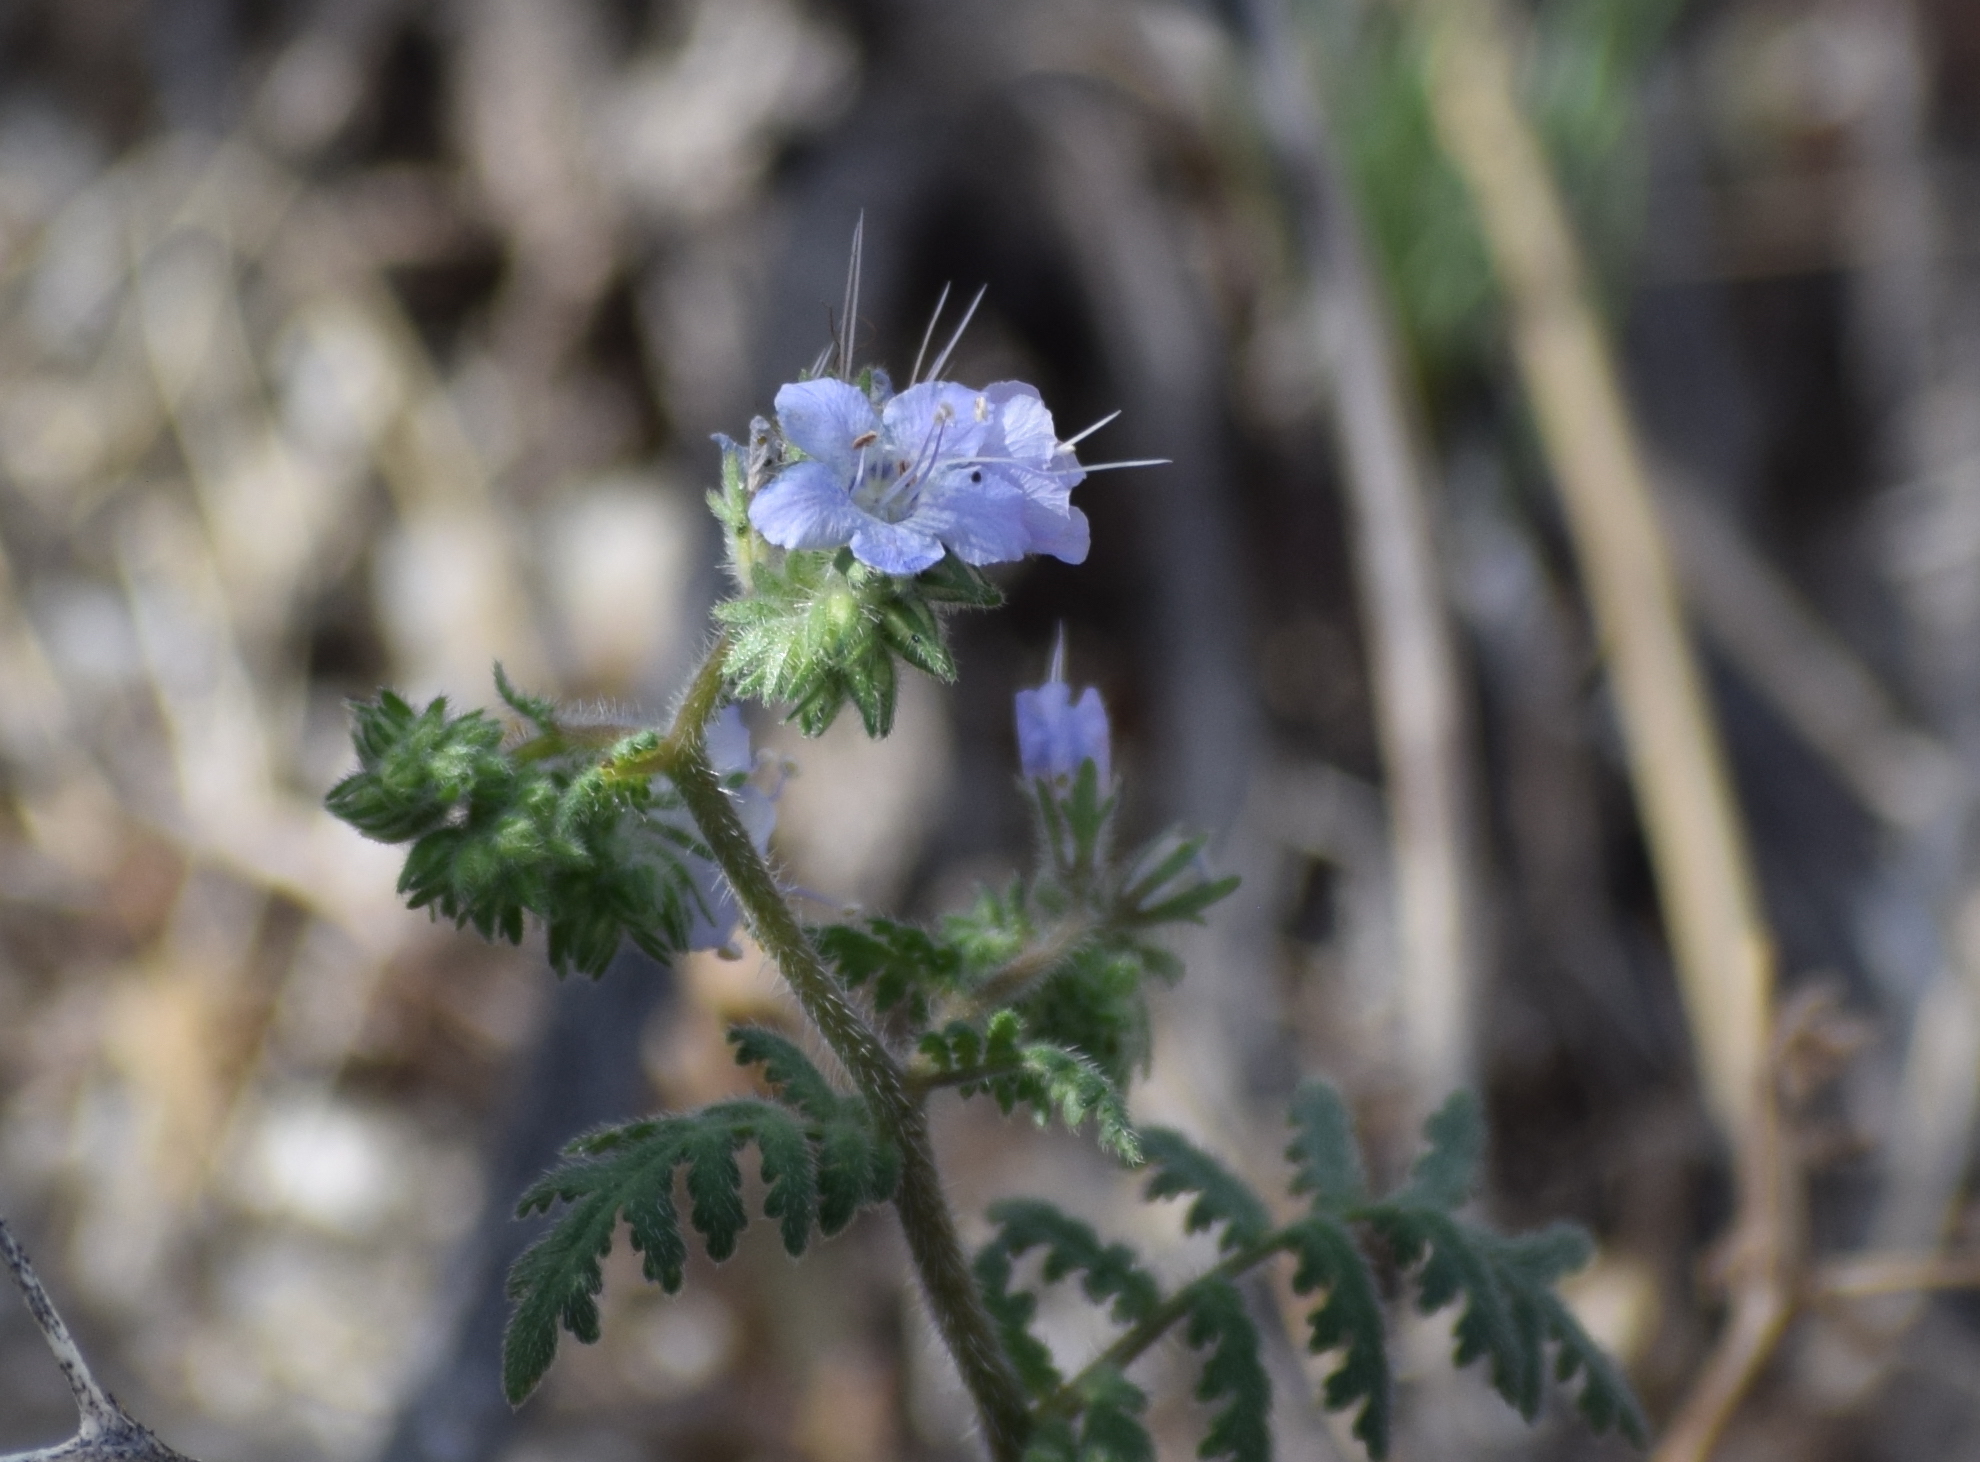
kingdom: Plantae
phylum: Tracheophyta
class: Magnoliopsida
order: Boraginales
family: Hydrophyllaceae
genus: Phacelia
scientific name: Phacelia distans
